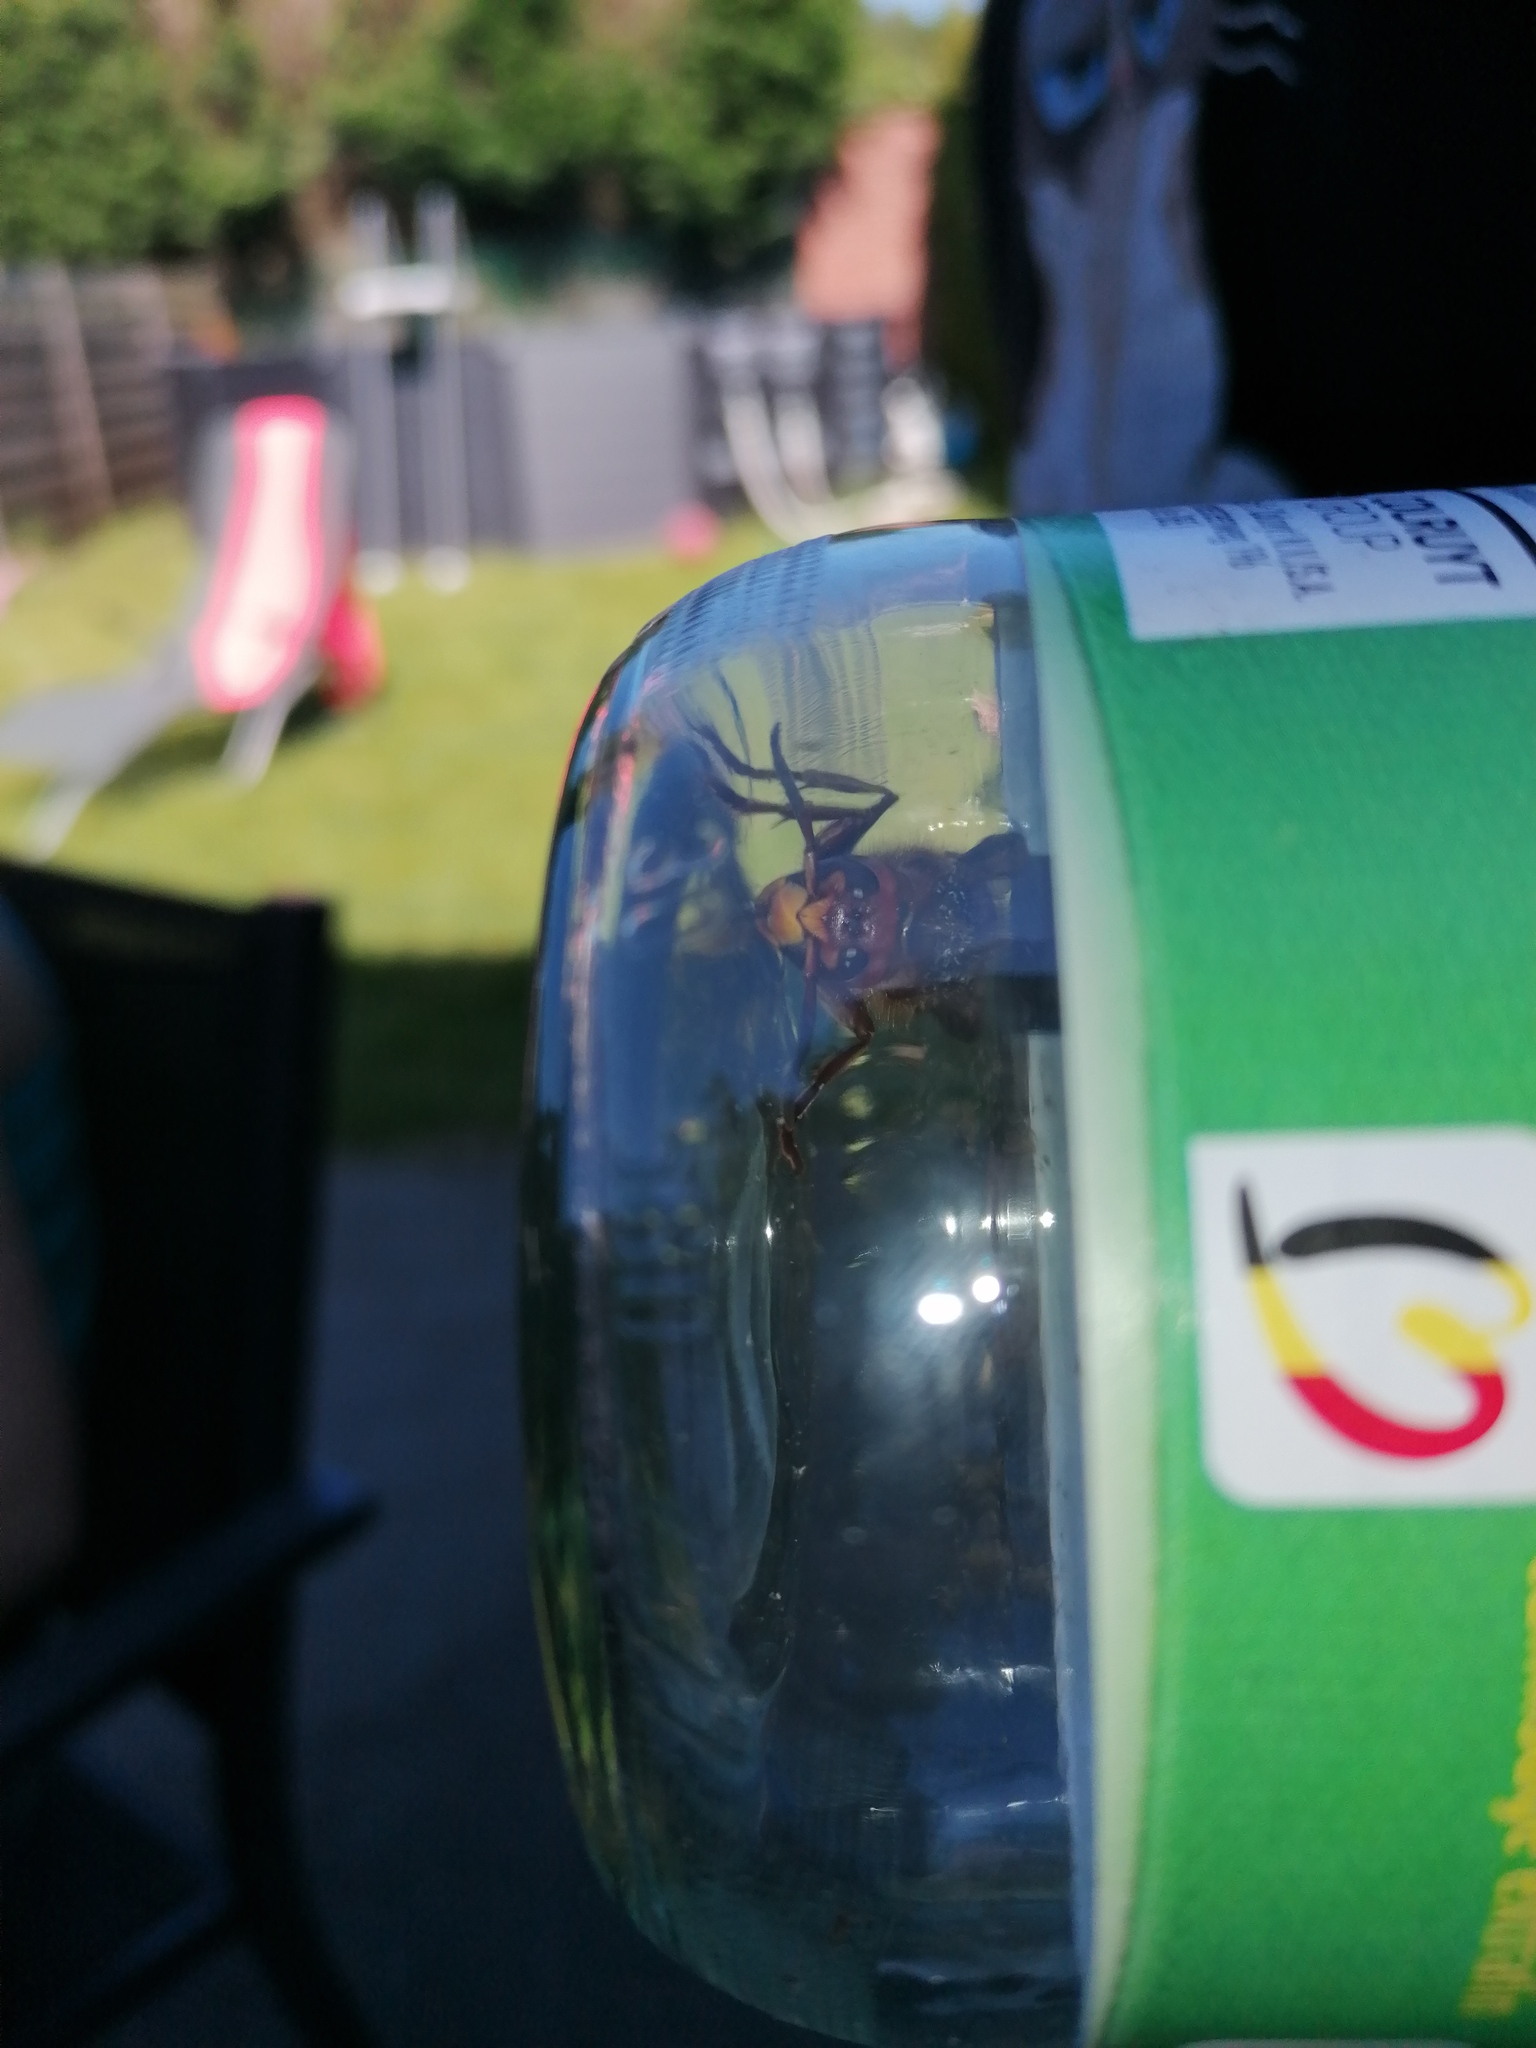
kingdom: Animalia
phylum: Arthropoda
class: Insecta
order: Hymenoptera
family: Vespidae
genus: Vespa
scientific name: Vespa crabro
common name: Hornet
